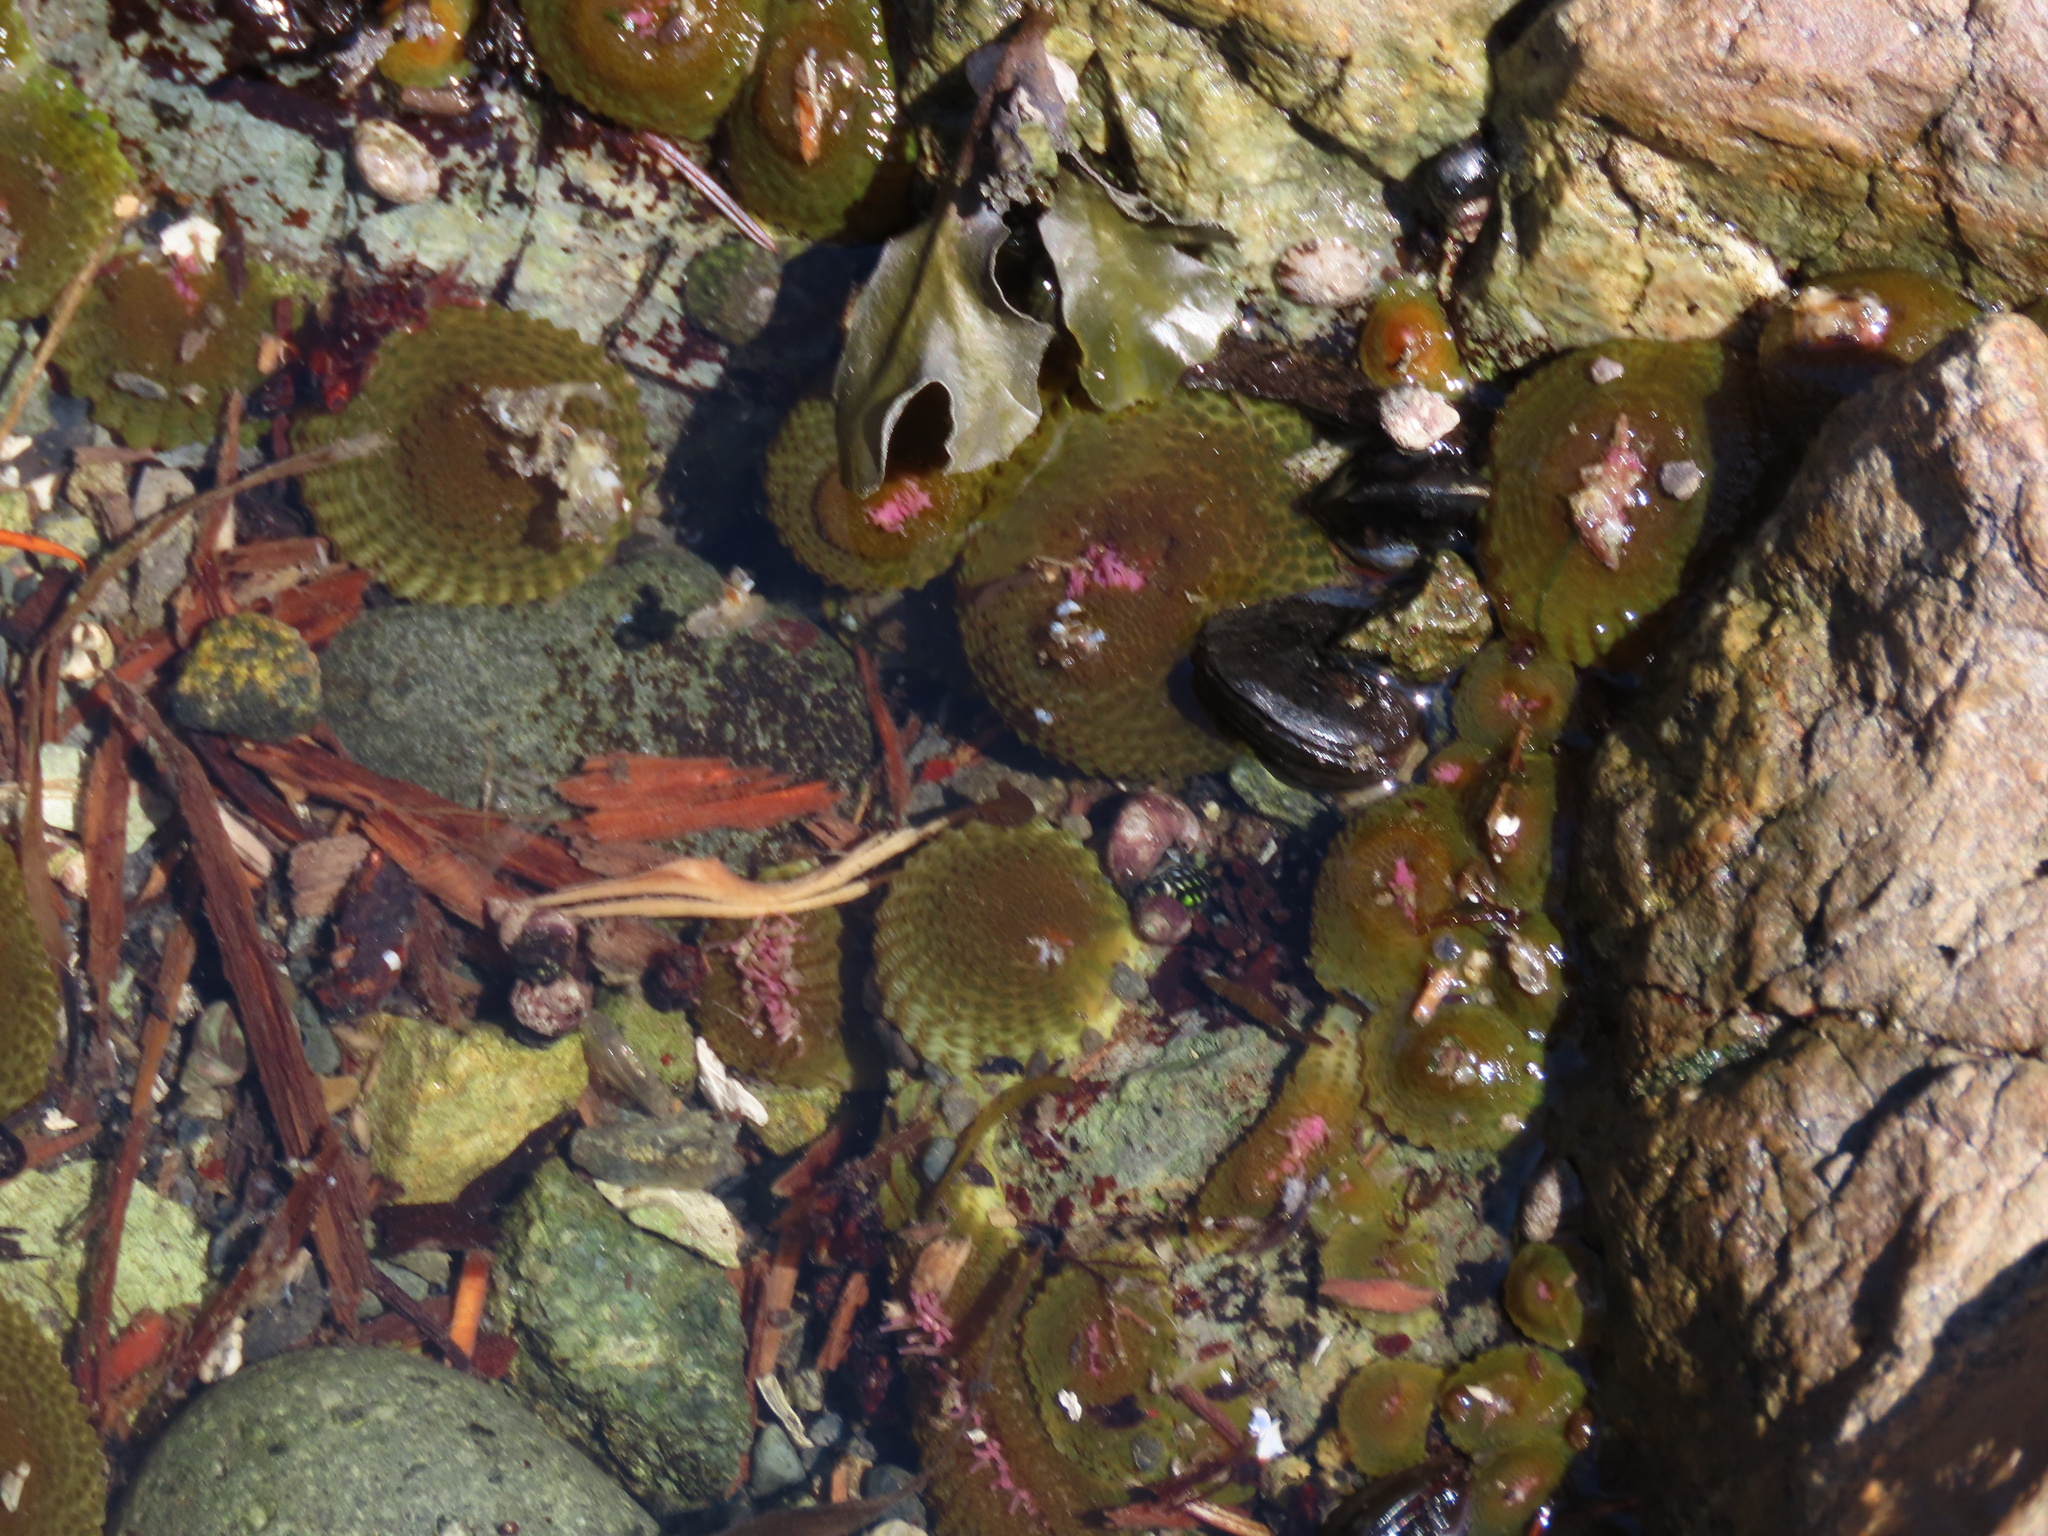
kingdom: Animalia
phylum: Cnidaria
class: Anthozoa
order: Actiniaria
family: Actiniidae
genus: Anthopleura
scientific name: Anthopleura elegantissima
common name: Clonal anemone
